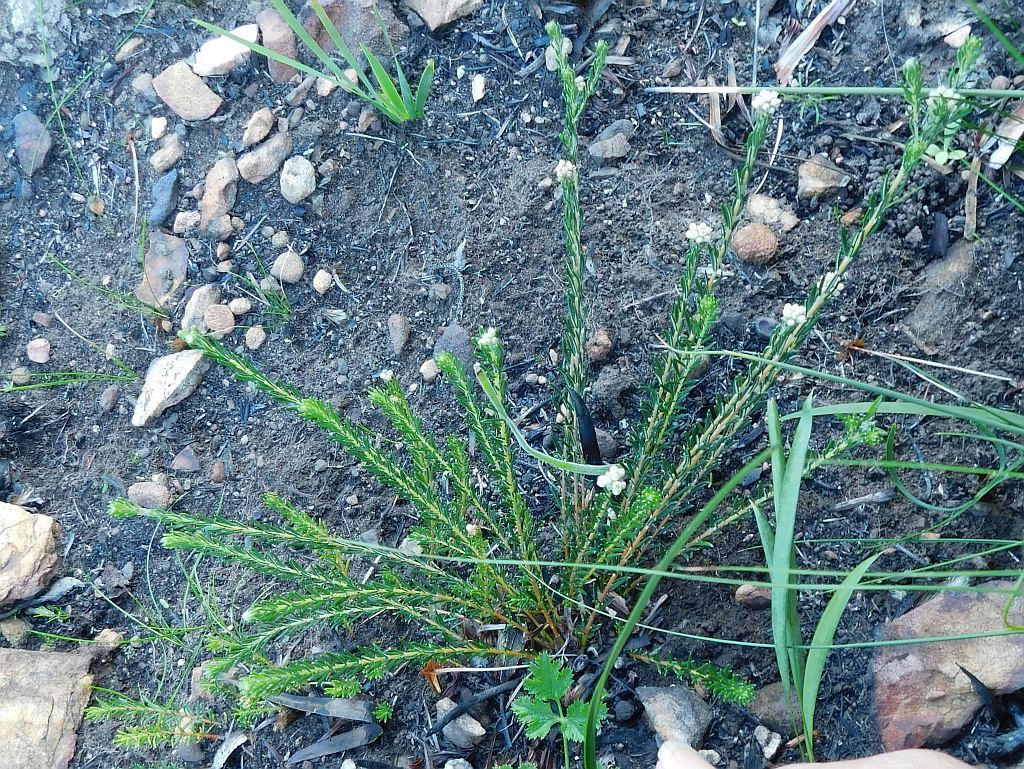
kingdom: Plantae
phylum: Tracheophyta
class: Magnoliopsida
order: Rosales
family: Rhamnaceae
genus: Phylica
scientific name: Phylica imberbis
